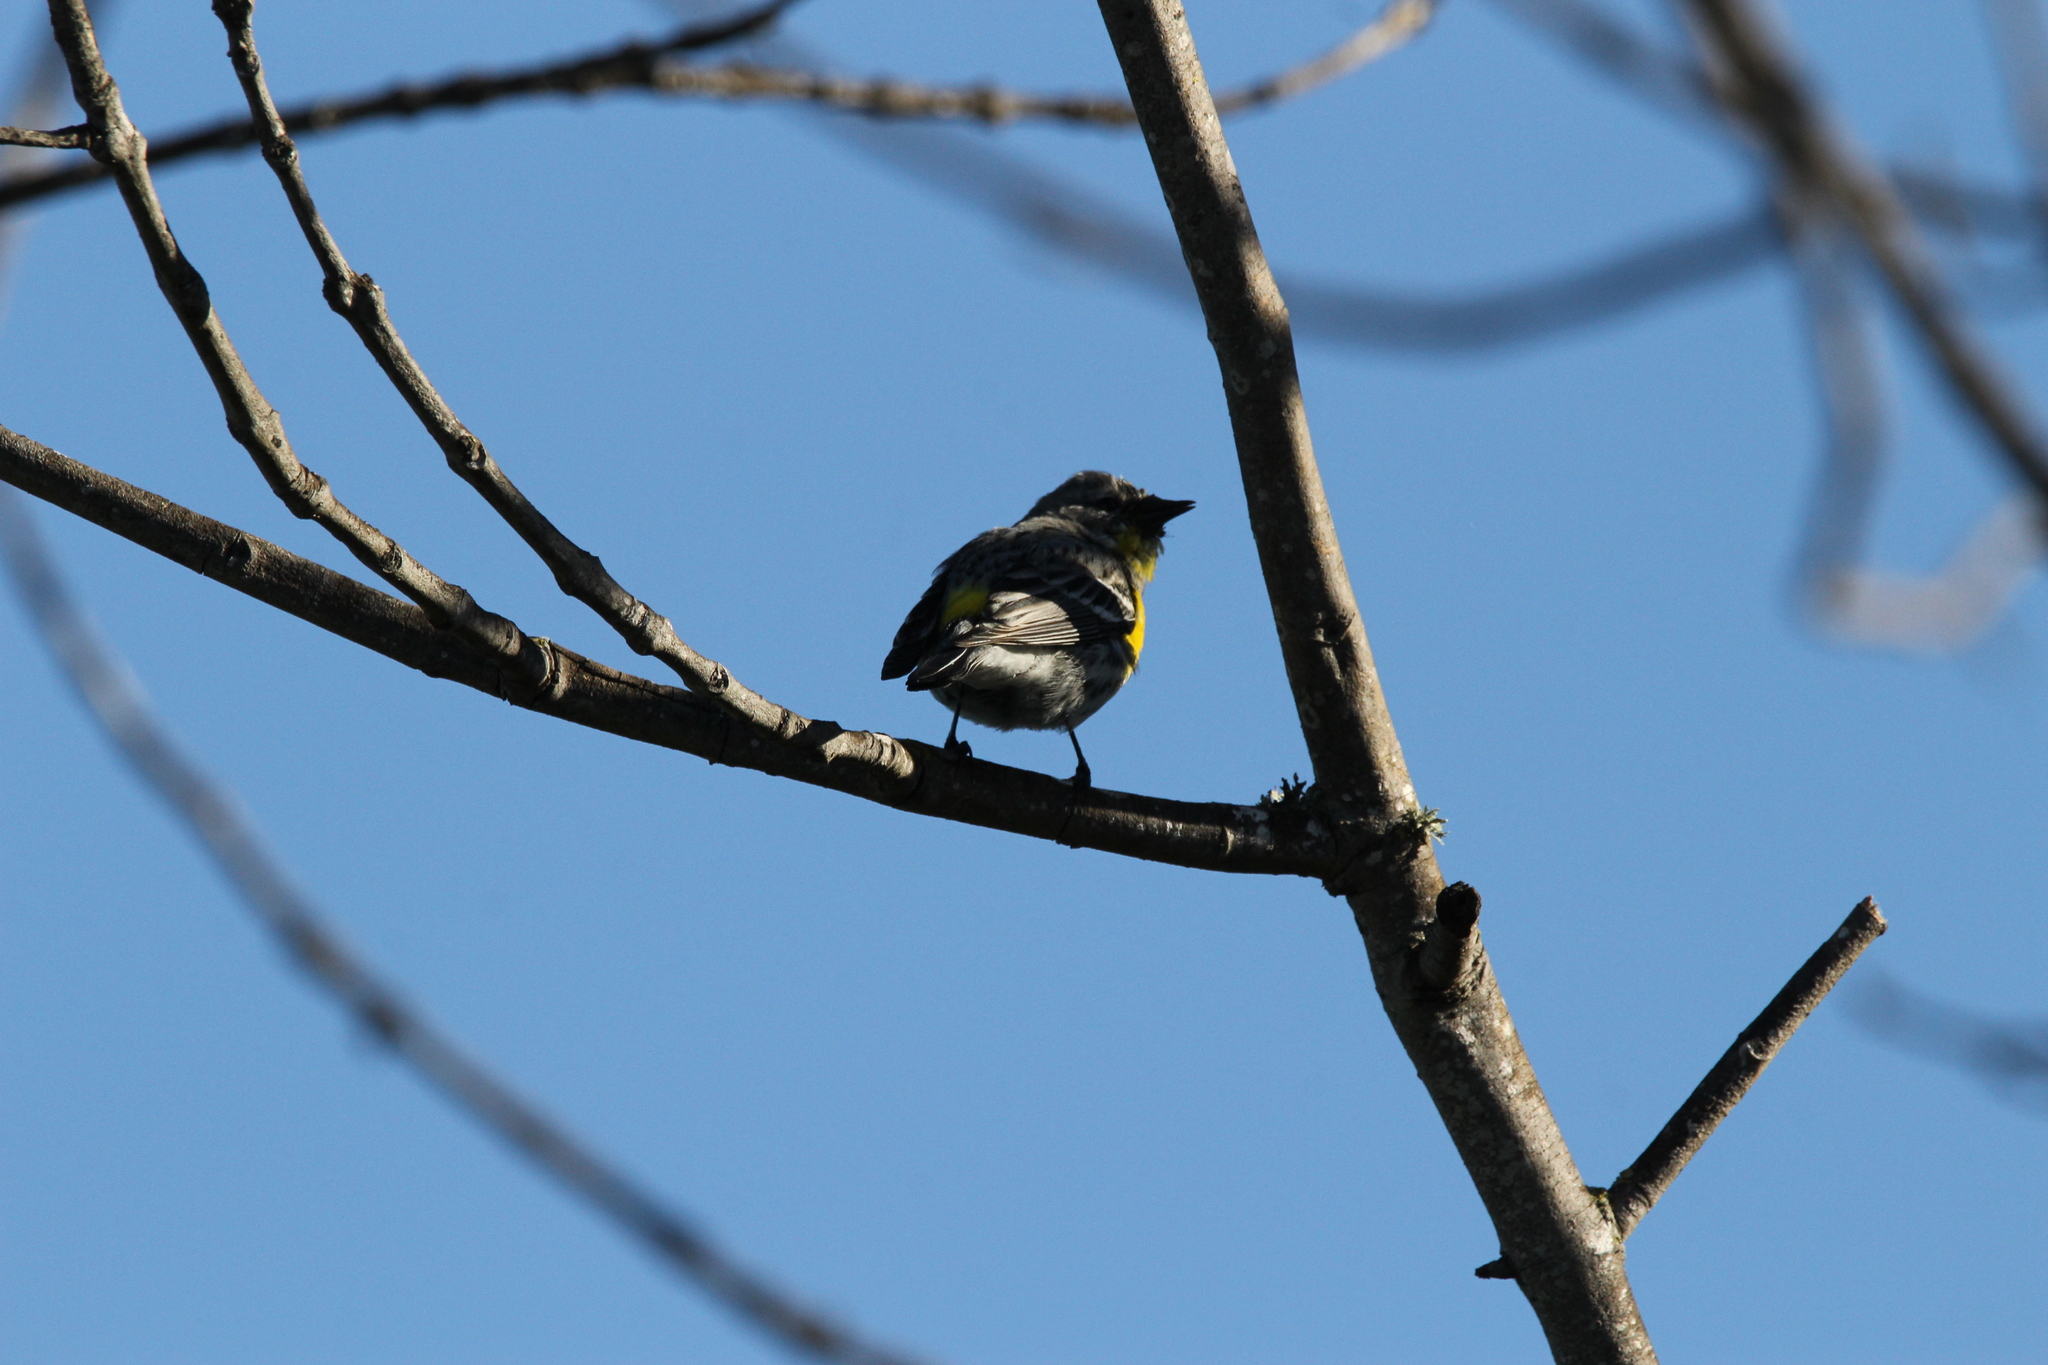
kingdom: Animalia
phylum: Chordata
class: Aves
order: Passeriformes
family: Parulidae
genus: Setophaga
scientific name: Setophaga coronata
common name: Myrtle warbler
